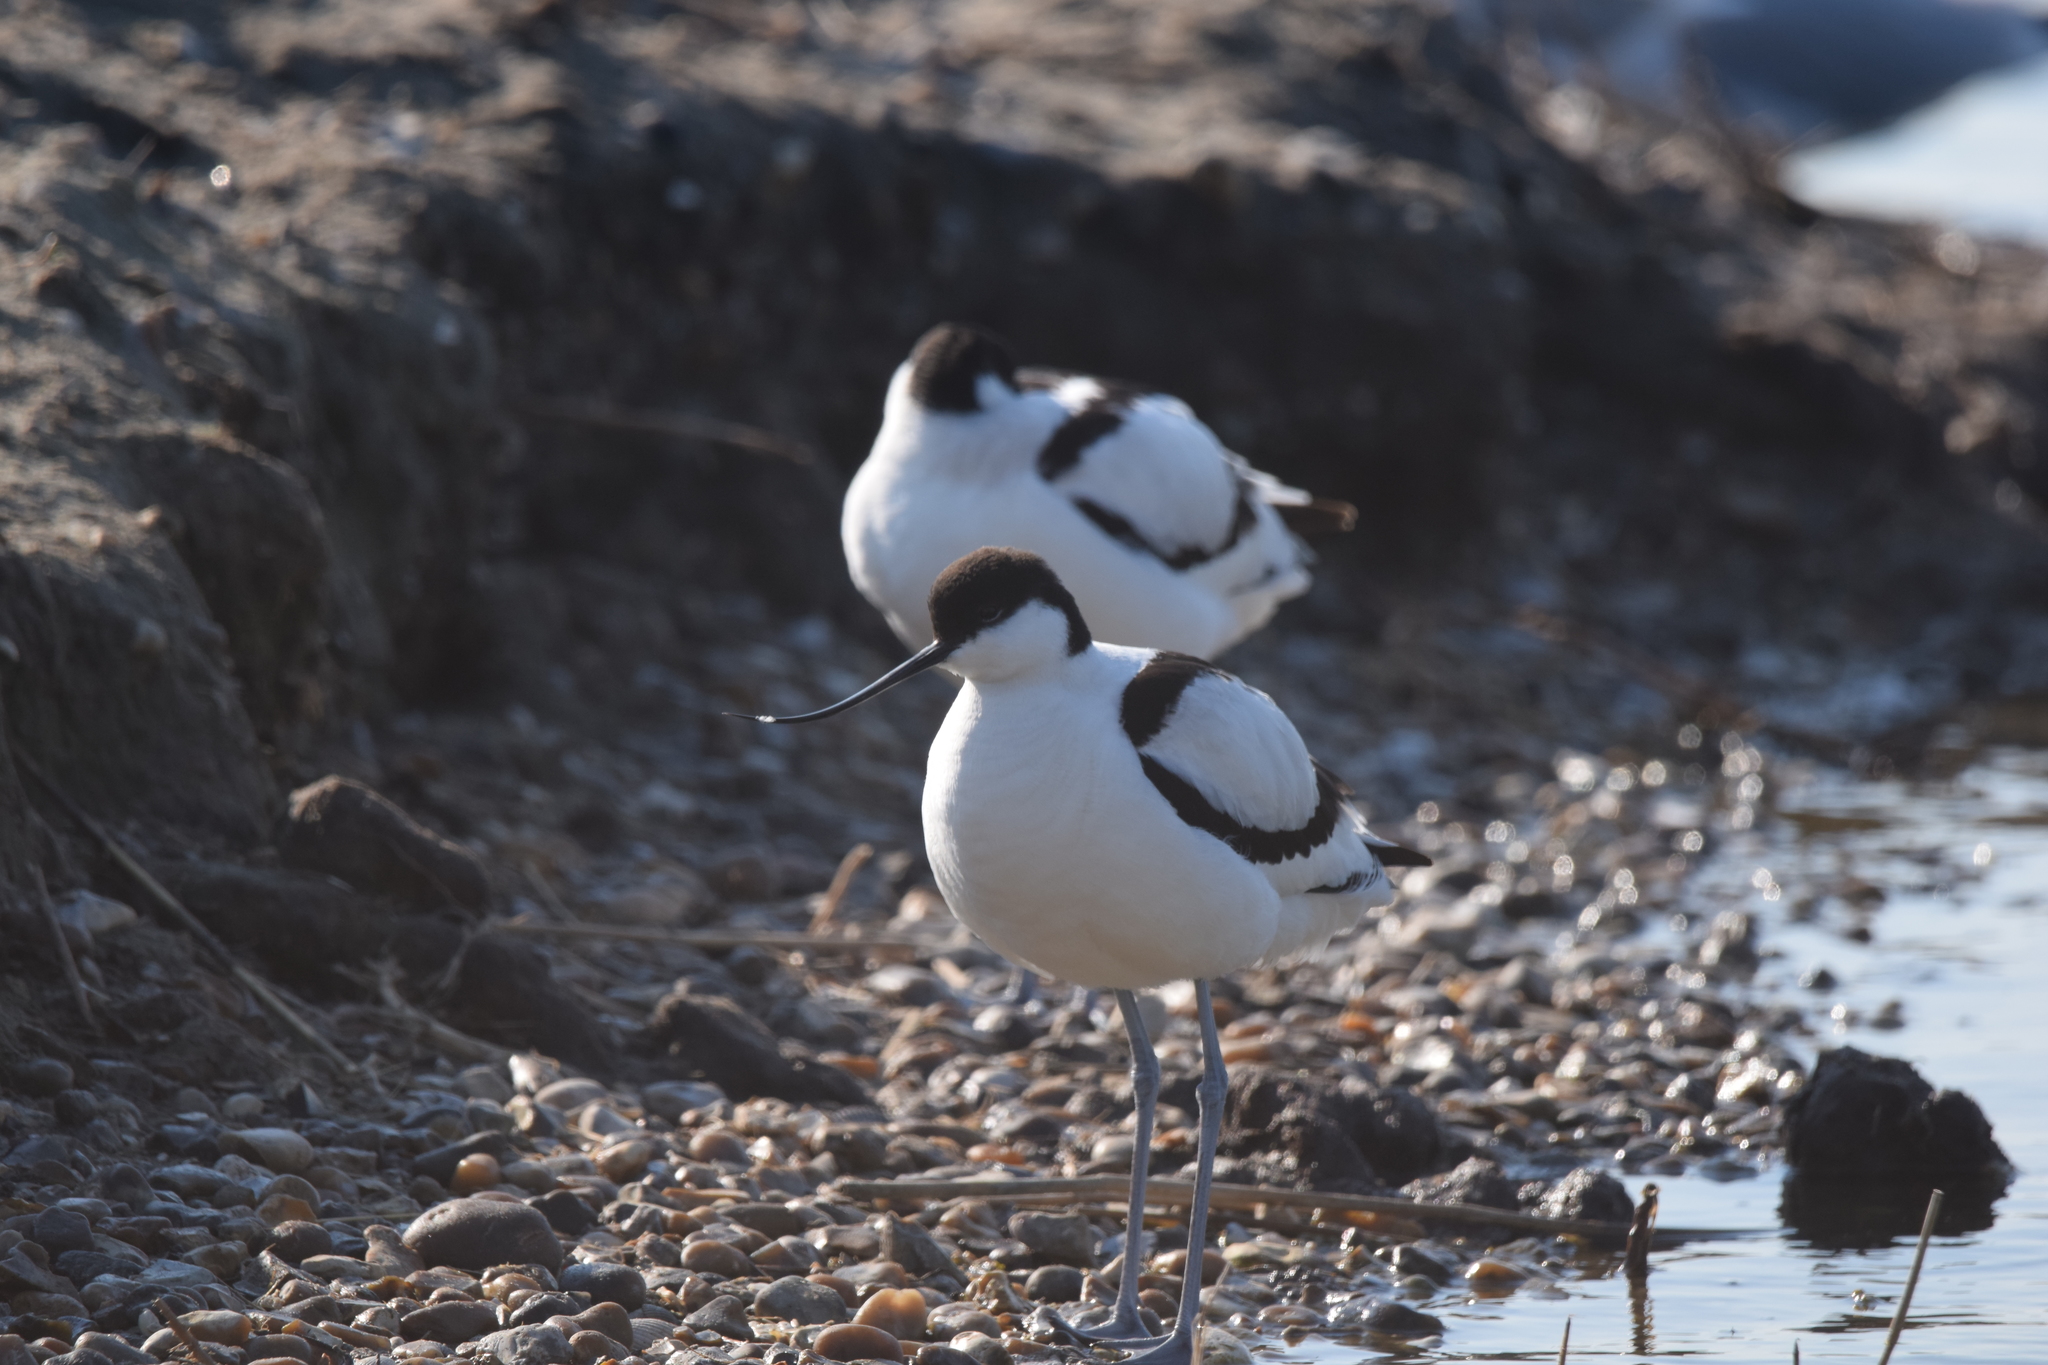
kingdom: Animalia
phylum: Chordata
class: Aves
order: Charadriiformes
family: Recurvirostridae
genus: Recurvirostra
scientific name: Recurvirostra avosetta
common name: Pied avocet
